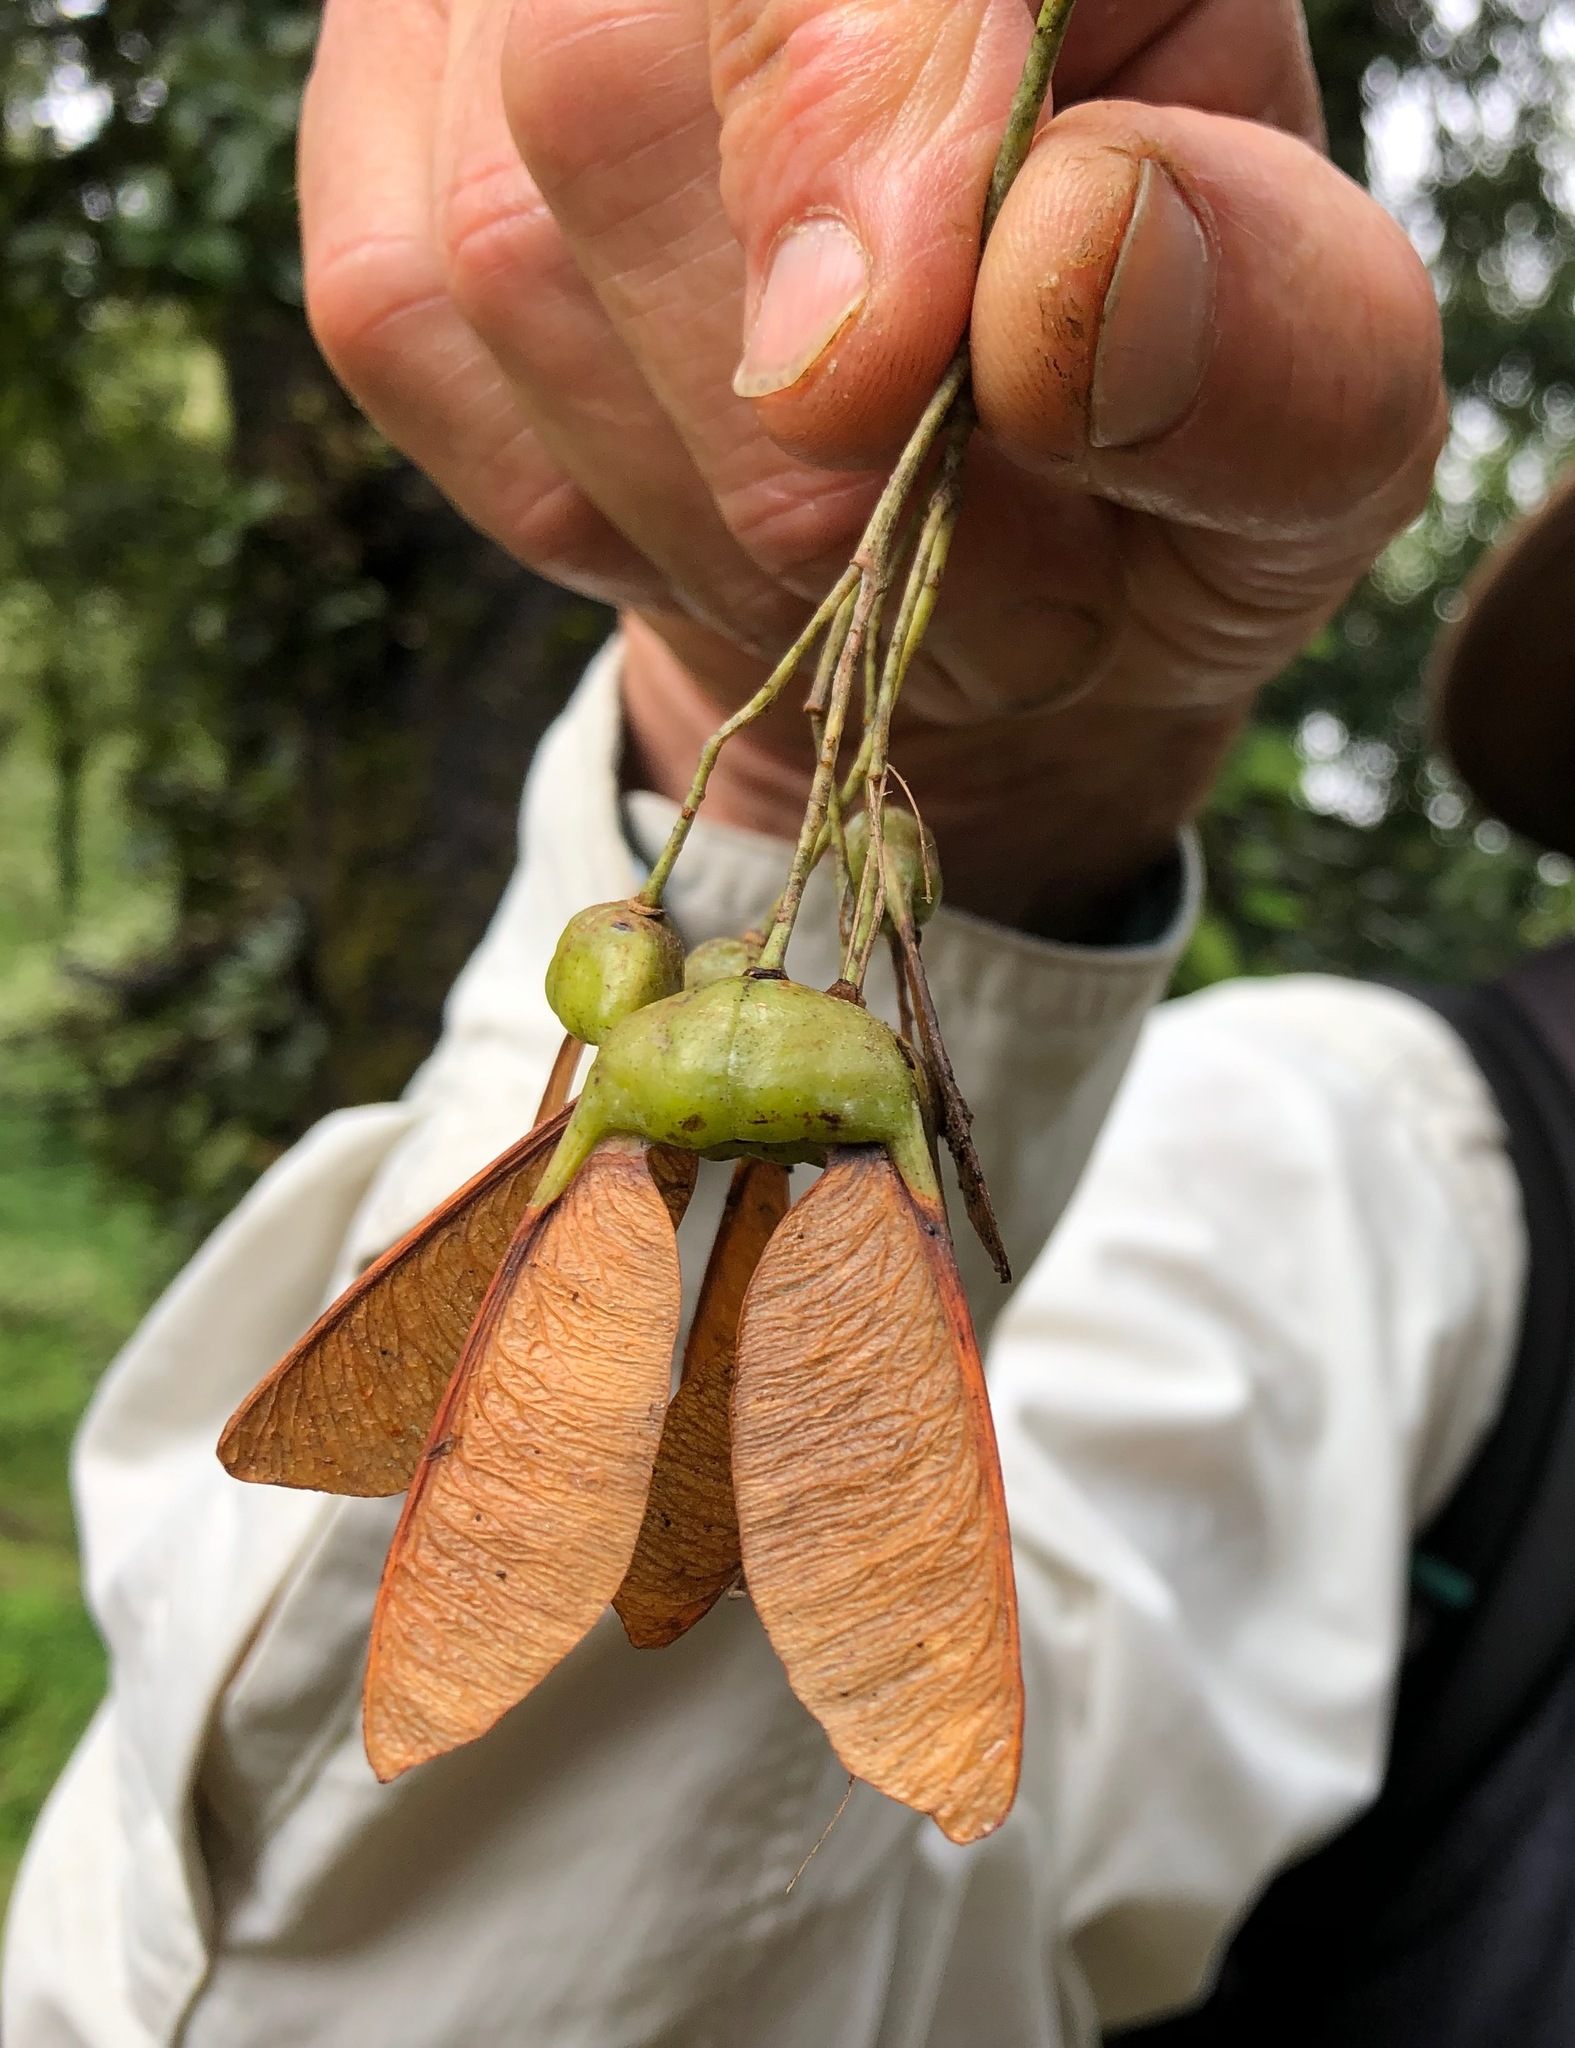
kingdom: Plantae
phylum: Tracheophyta
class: Magnoliopsida
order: Sapindales
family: Sapindaceae
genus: Acer
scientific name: Acer caesium
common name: Indian maple
